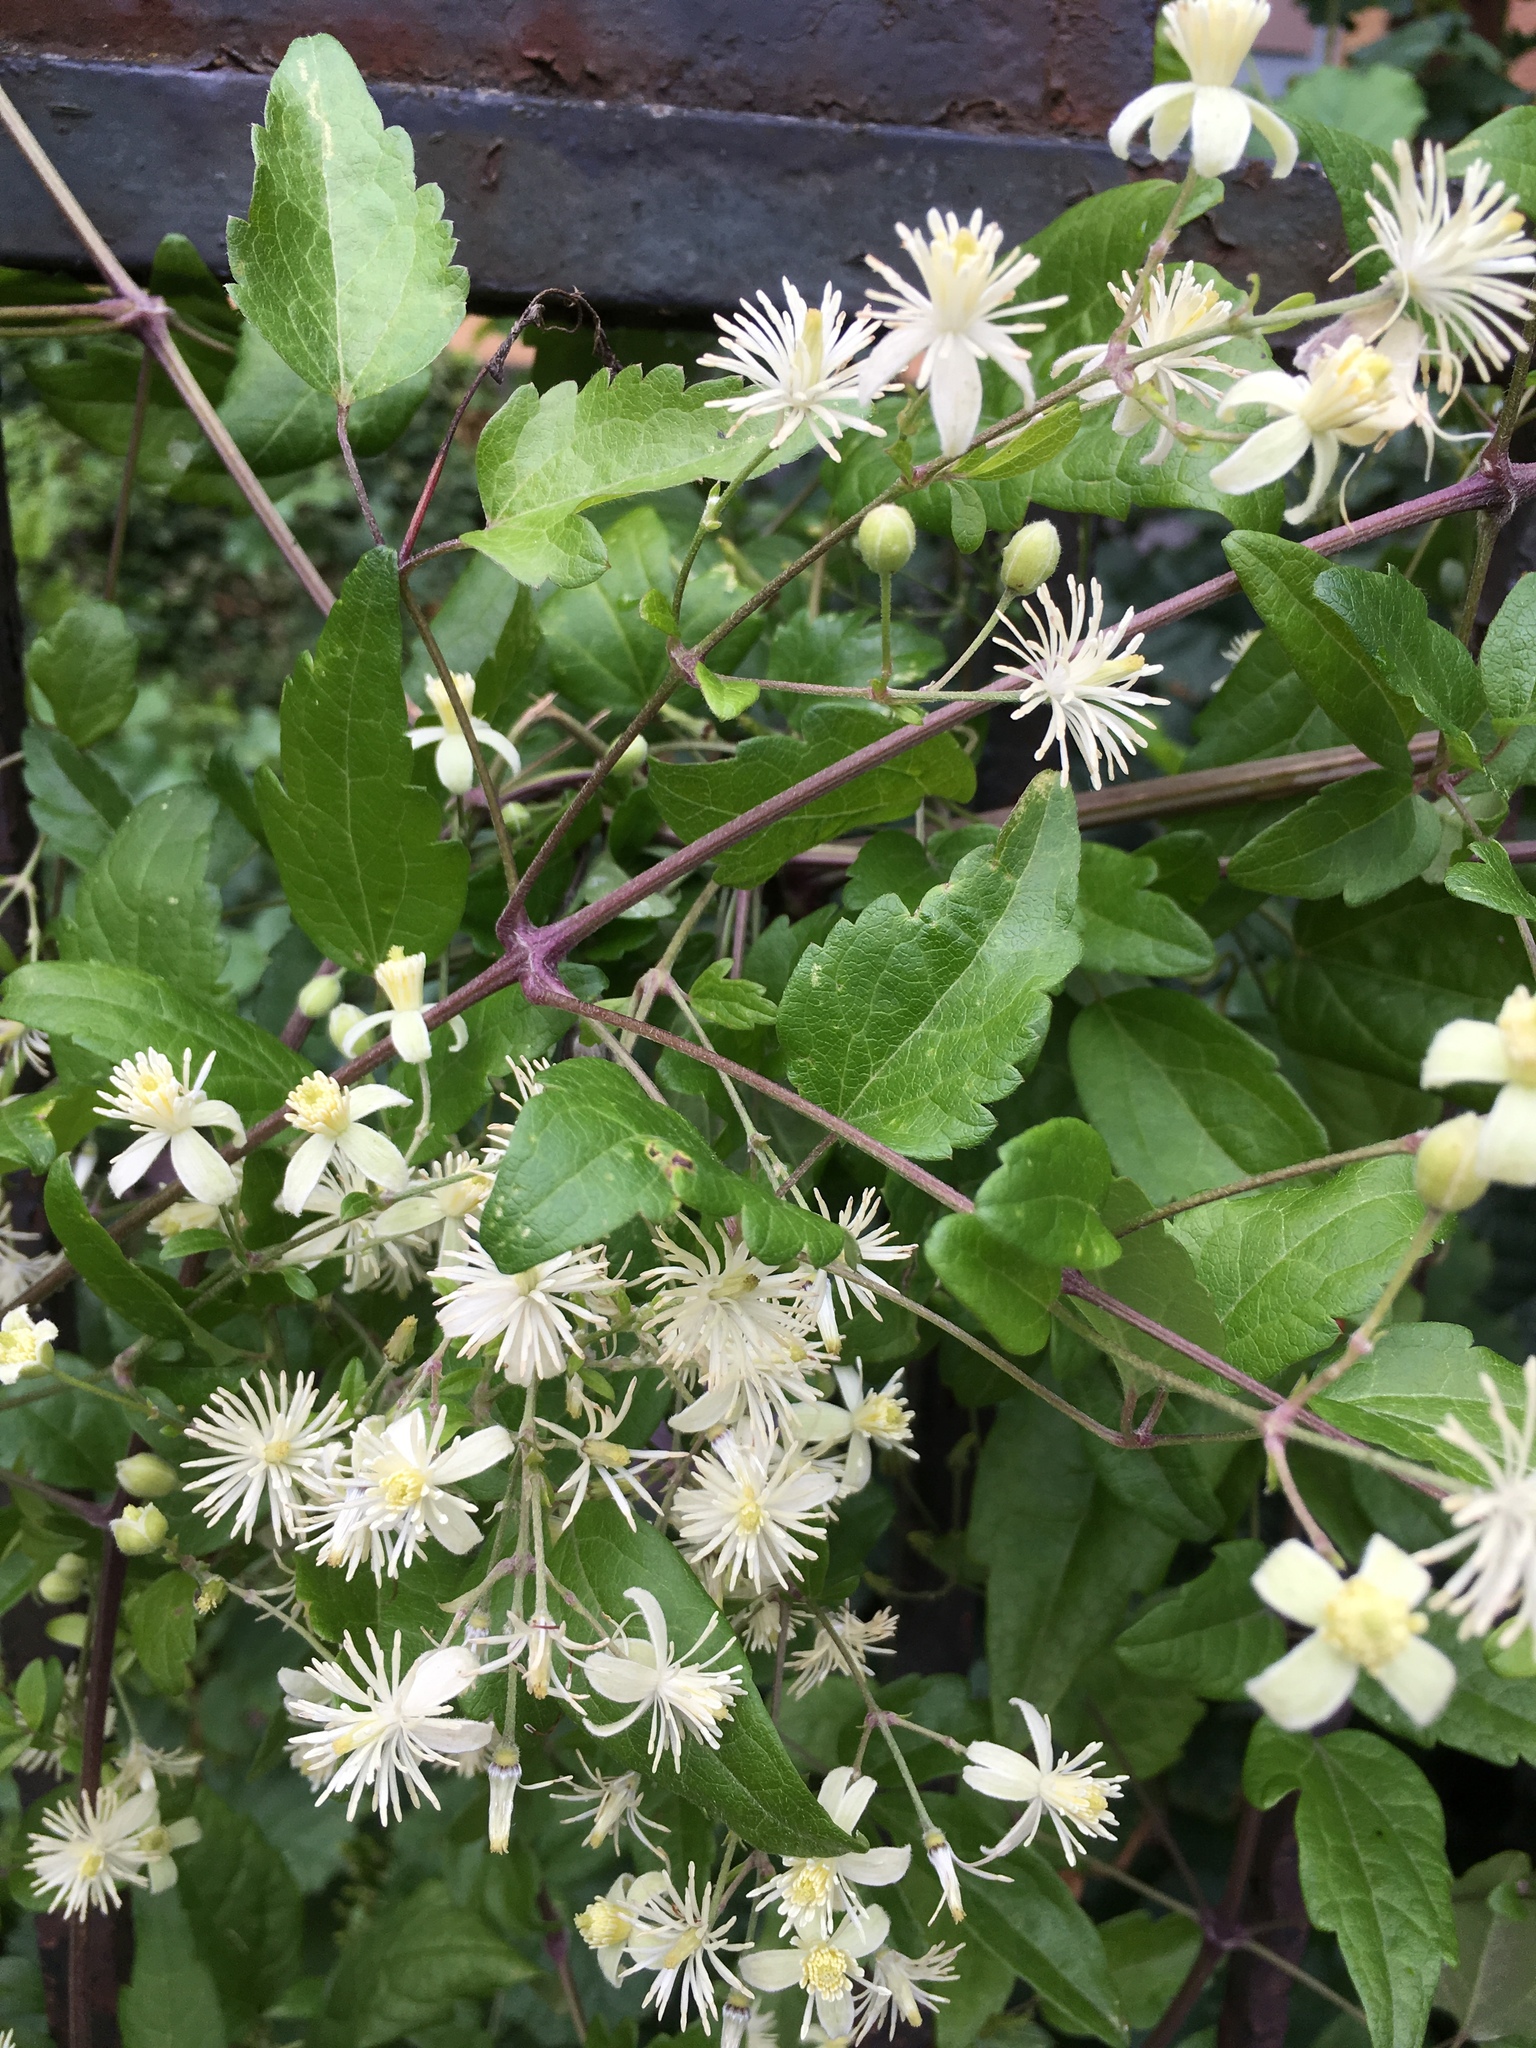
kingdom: Plantae
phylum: Tracheophyta
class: Magnoliopsida
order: Ranunculales
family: Ranunculaceae
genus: Clematis
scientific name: Clematis vitalba
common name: Evergreen clematis
